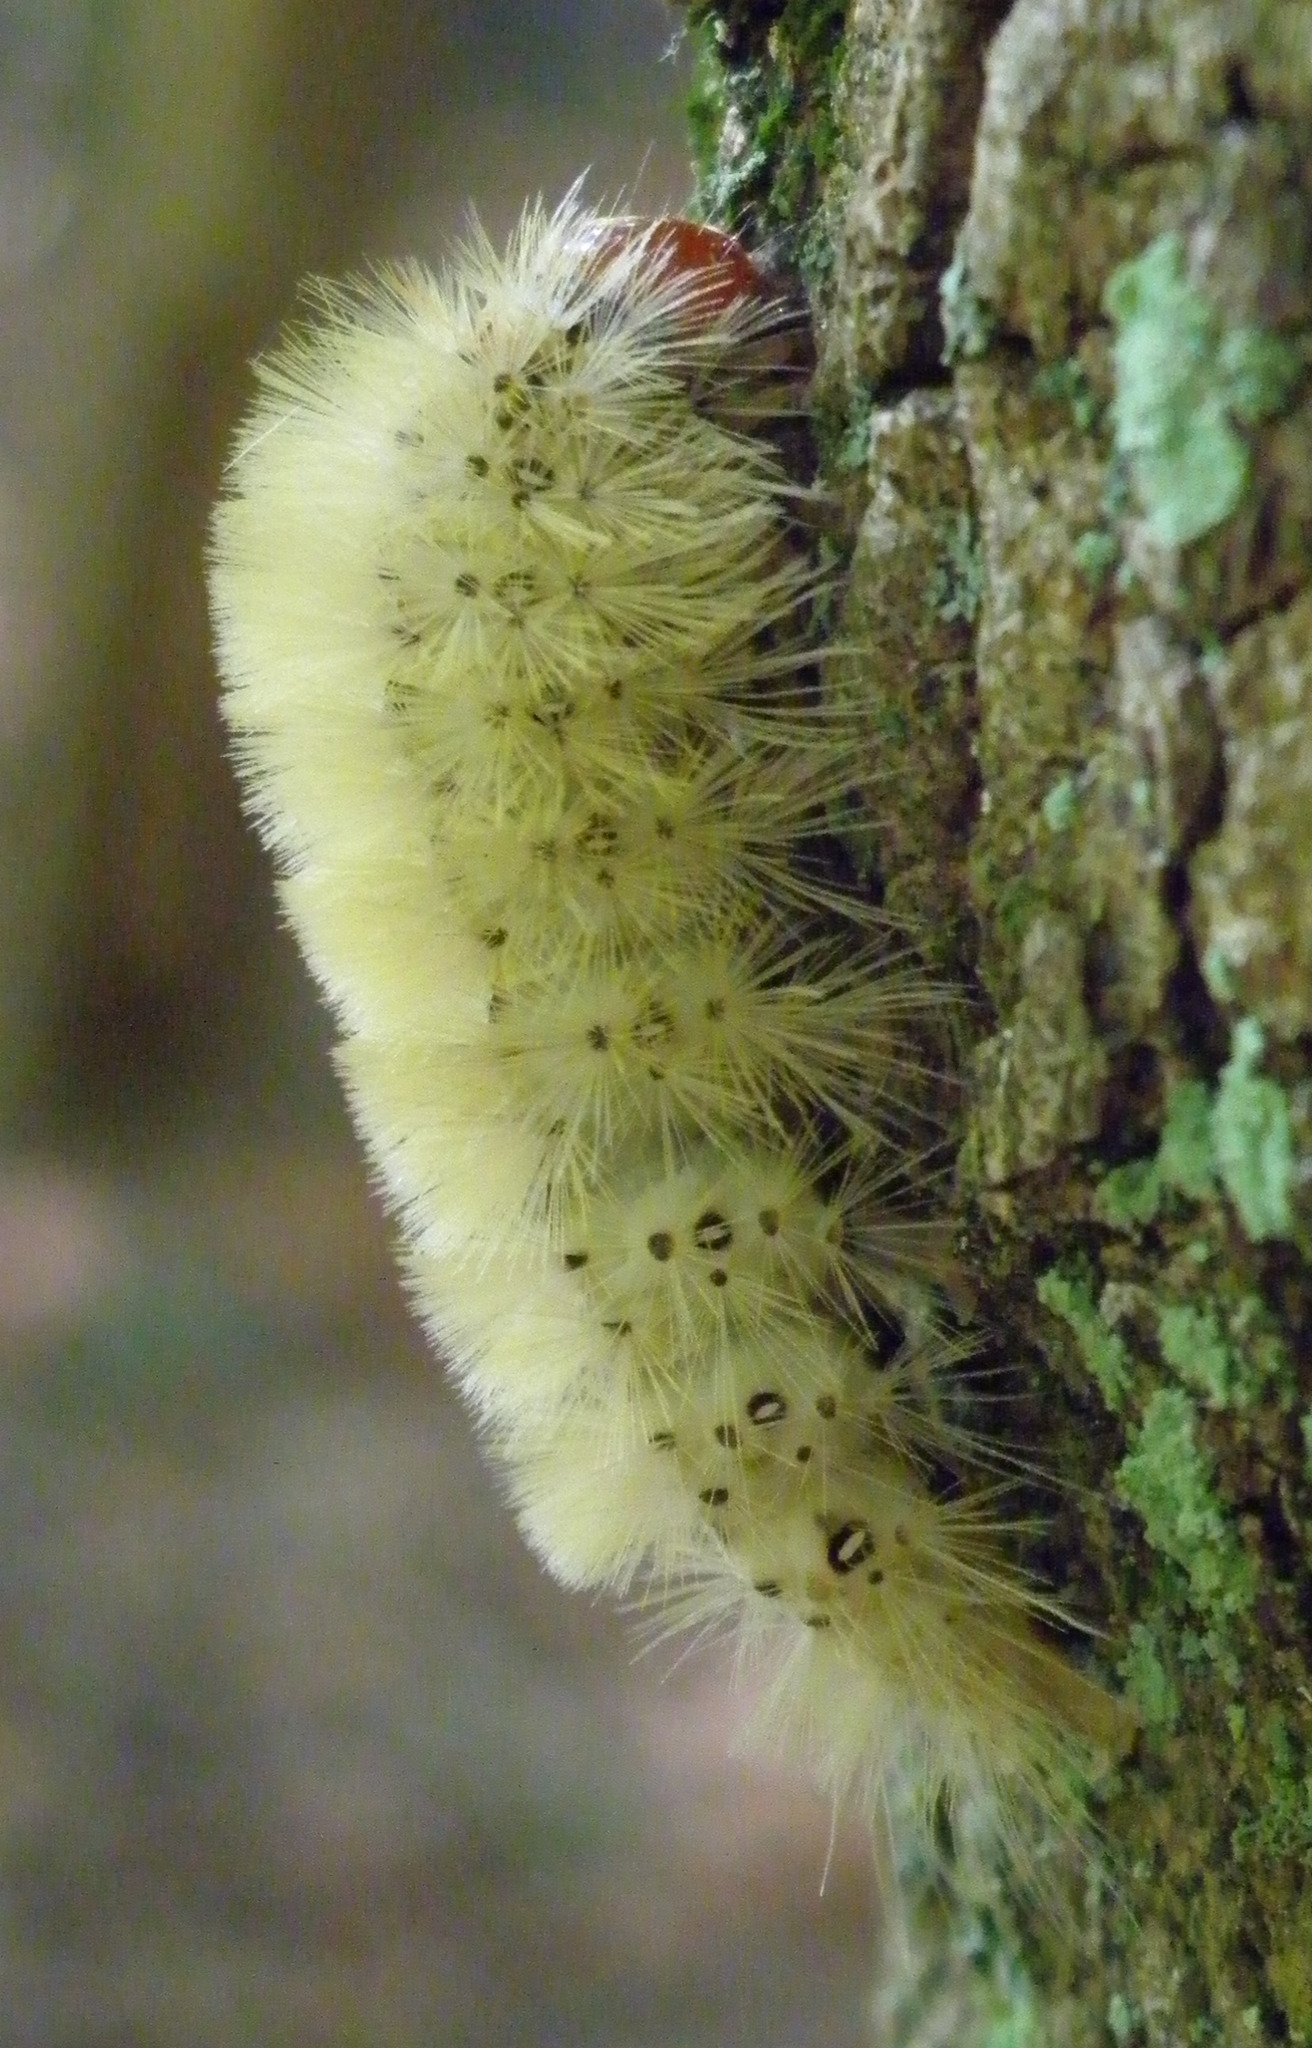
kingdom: Animalia
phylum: Arthropoda
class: Insecta
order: Lepidoptera
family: Erebidae
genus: Halysidota
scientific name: Halysidota harrisii
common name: Sycamore tussock moth
